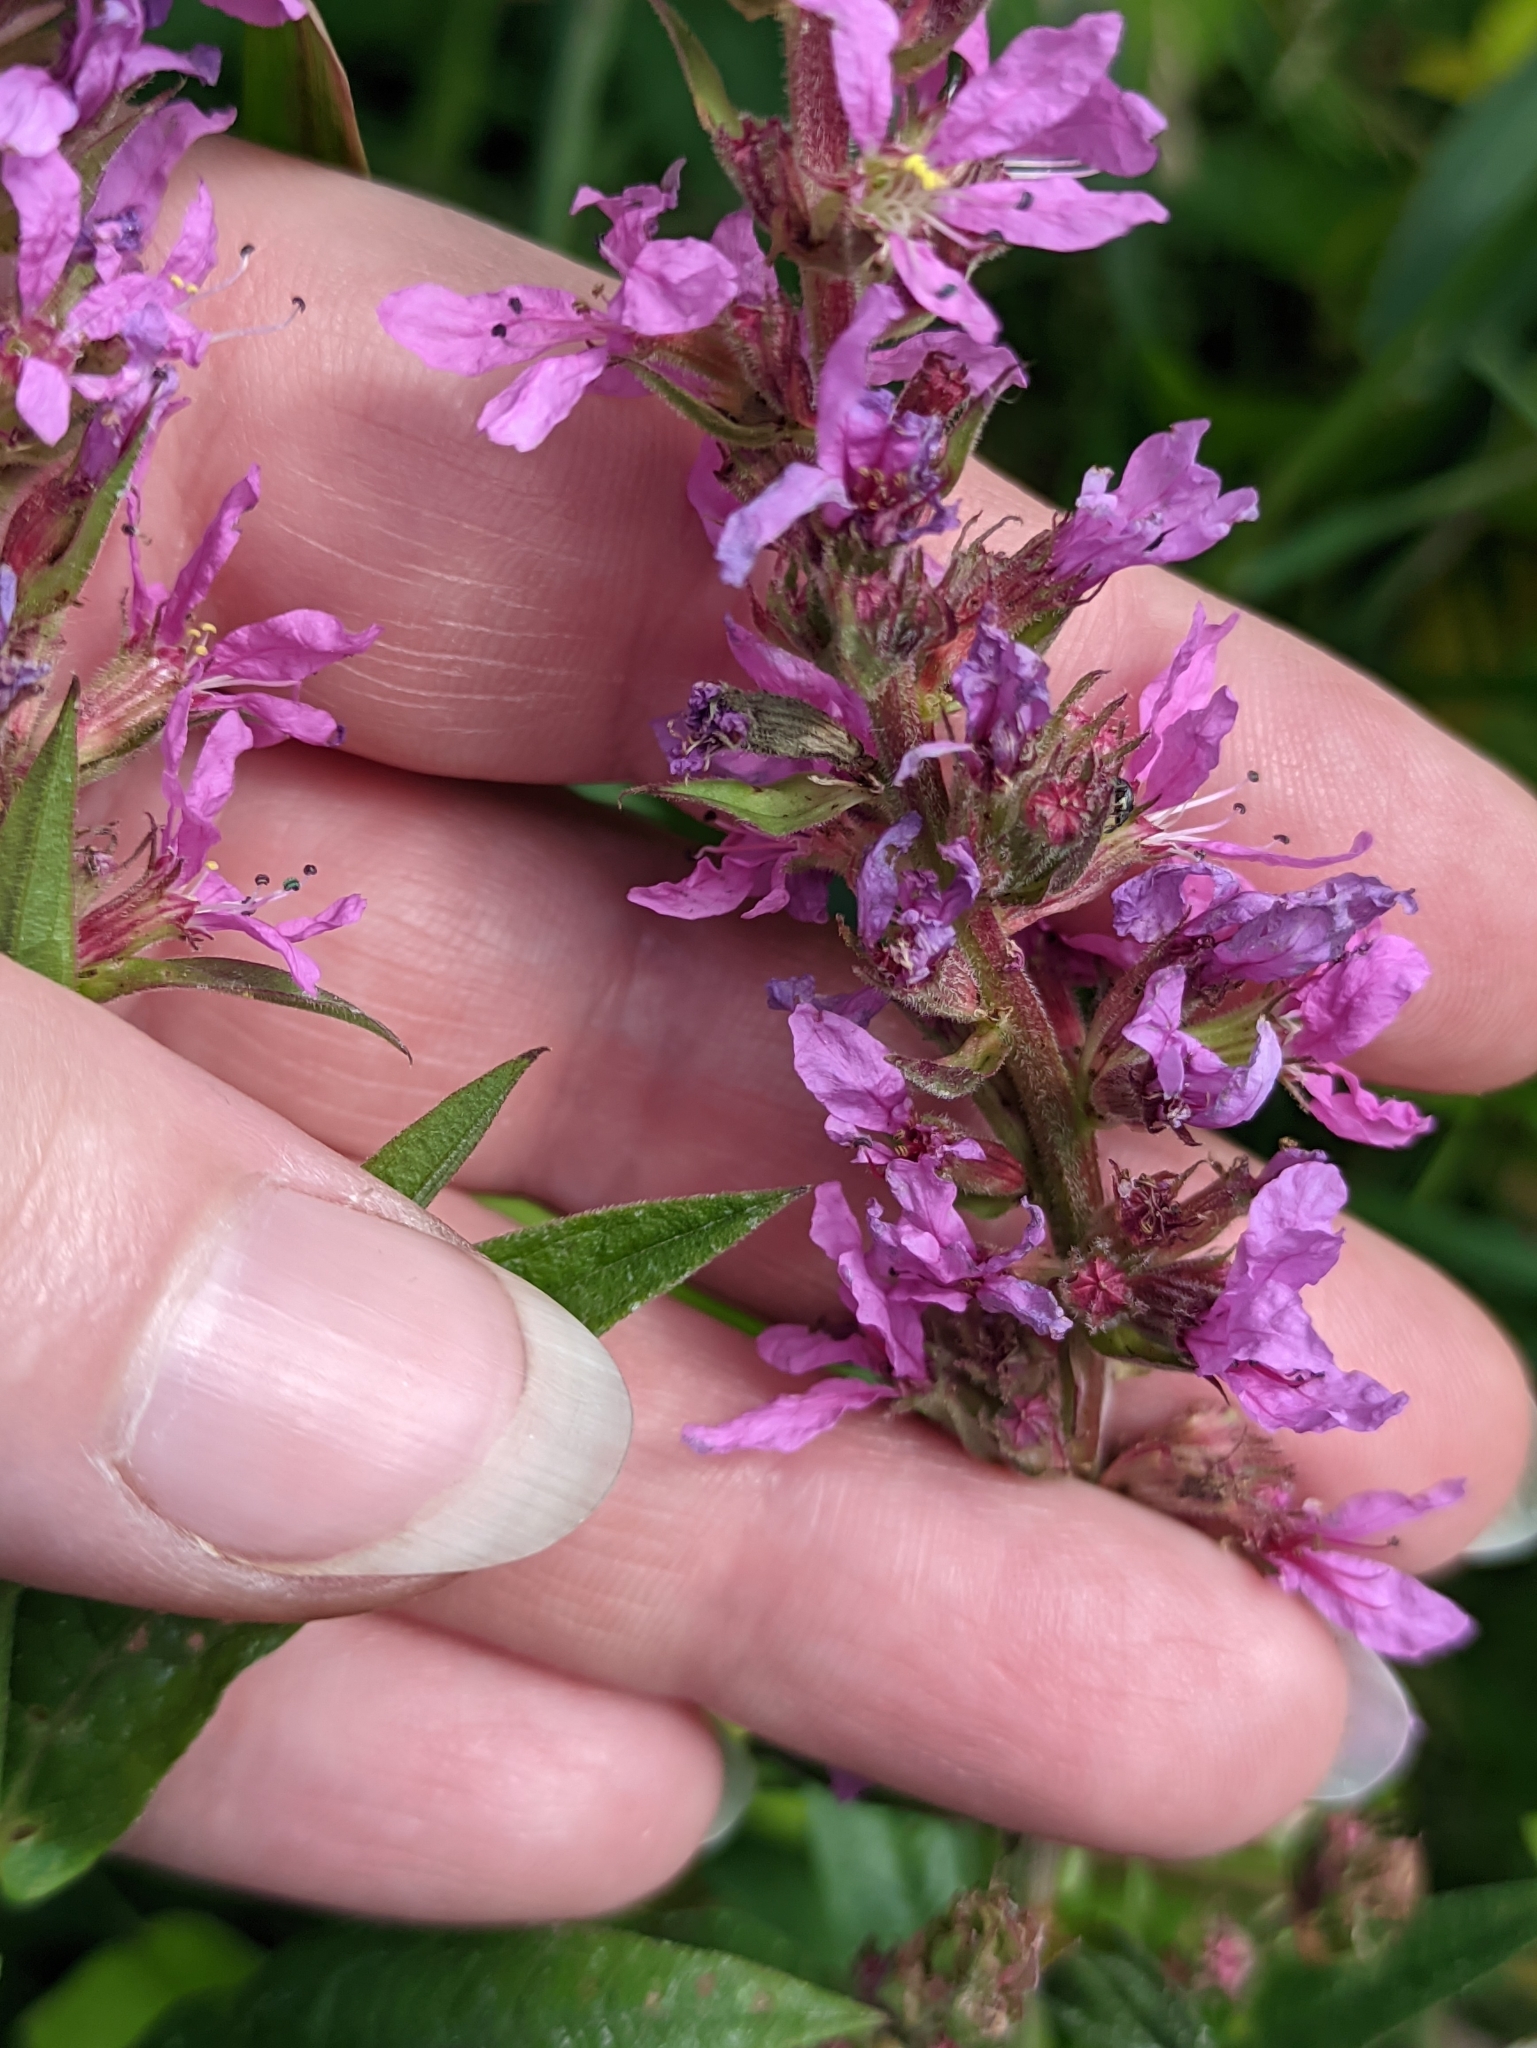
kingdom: Plantae
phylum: Tracheophyta
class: Magnoliopsida
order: Myrtales
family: Lythraceae
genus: Lythrum
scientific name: Lythrum salicaria
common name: Purple loosestrife
